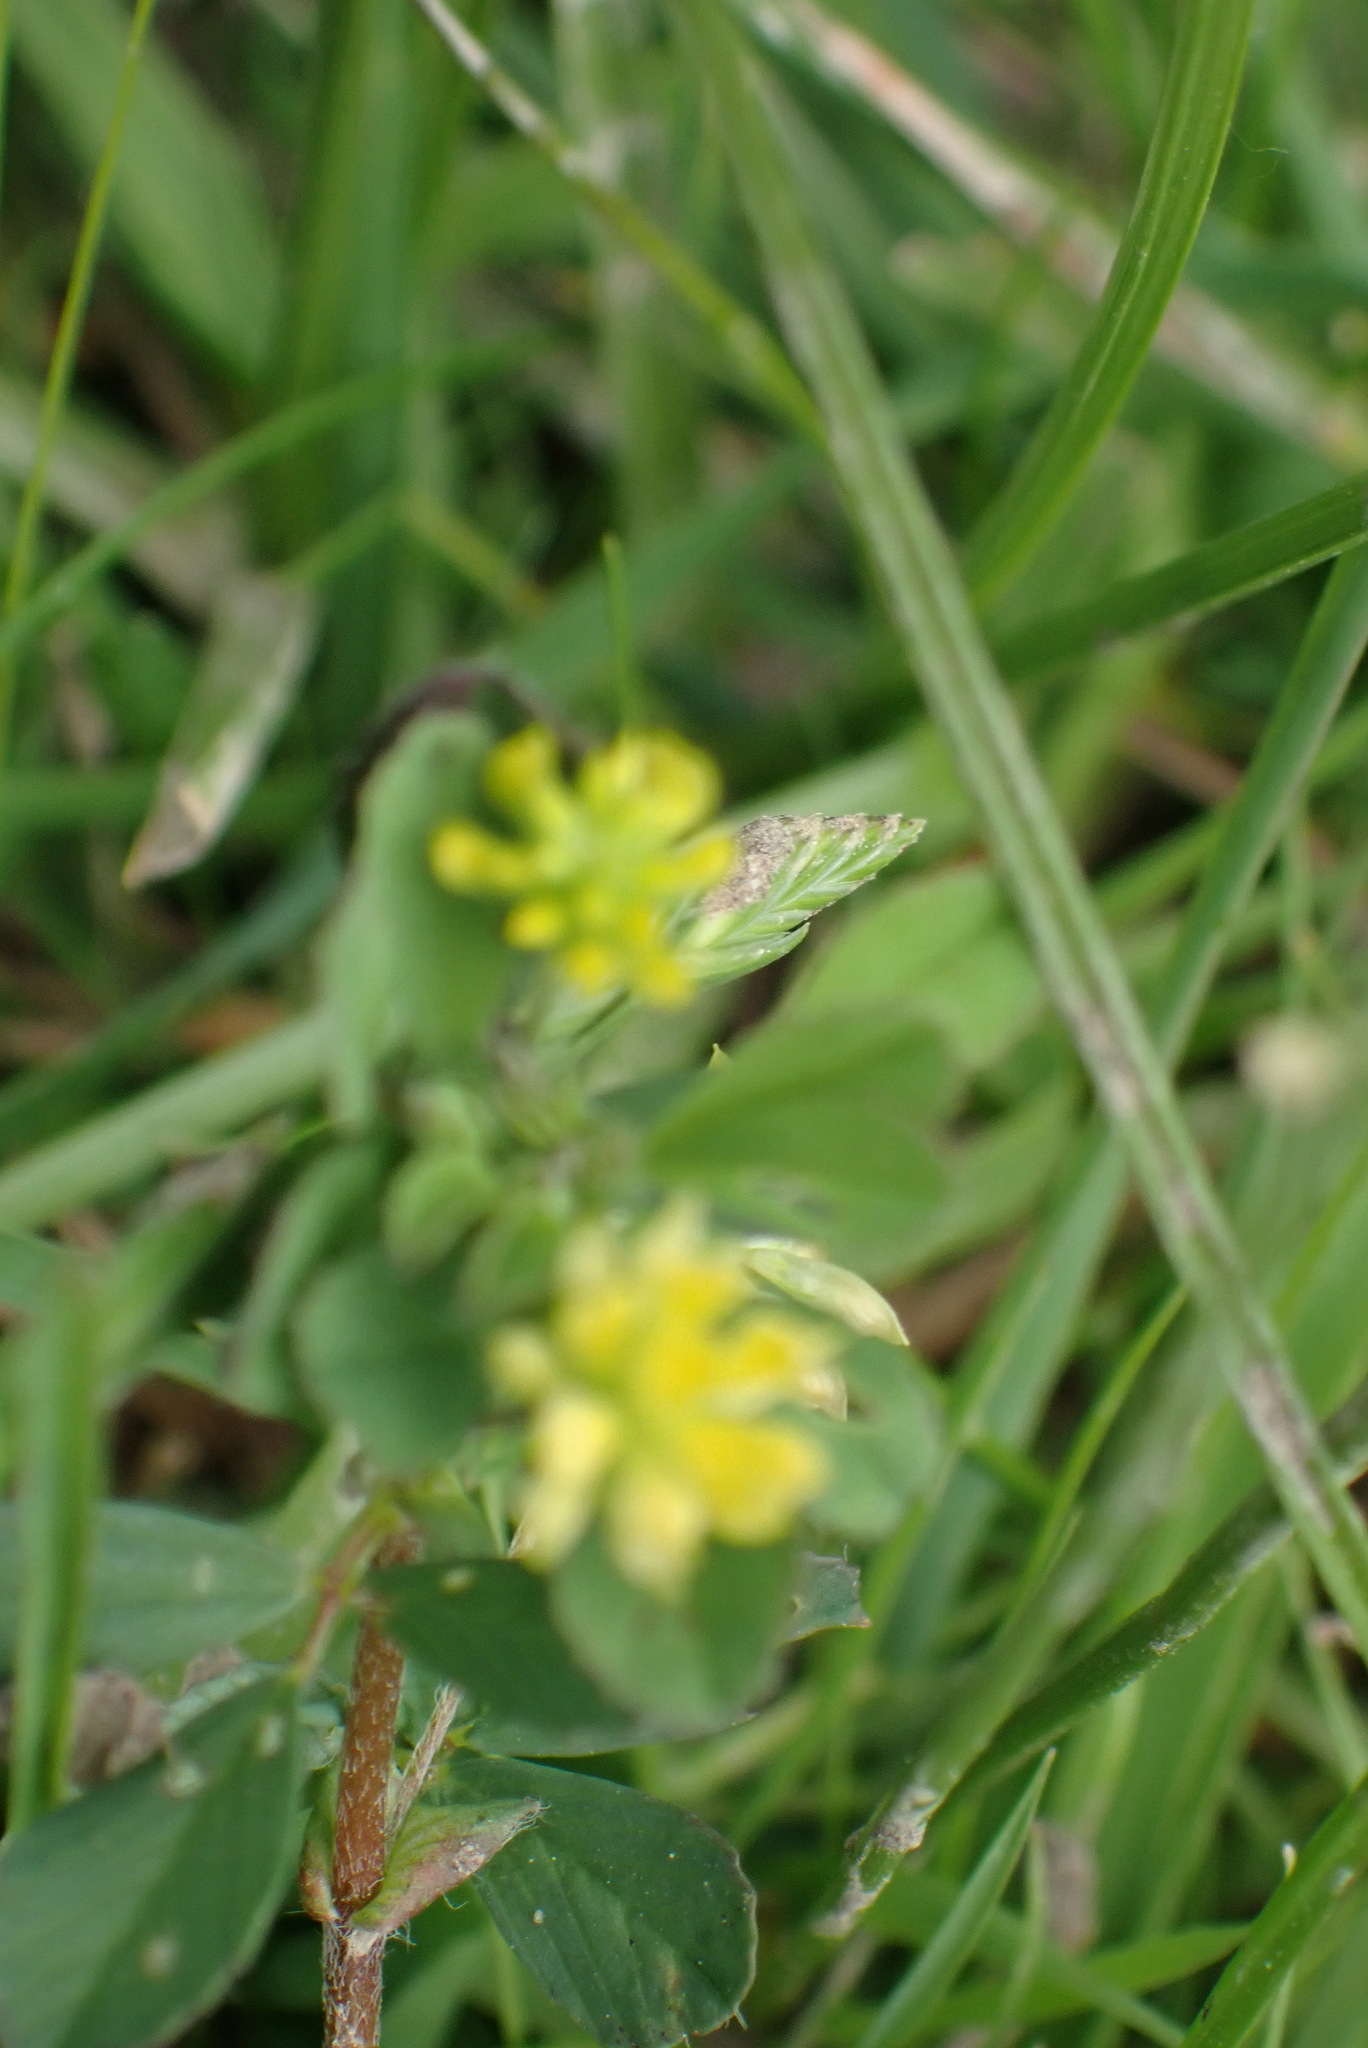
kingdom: Plantae
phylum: Tracheophyta
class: Magnoliopsida
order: Fabales
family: Fabaceae
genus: Trifolium
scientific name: Trifolium dubium
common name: Suckling clover
